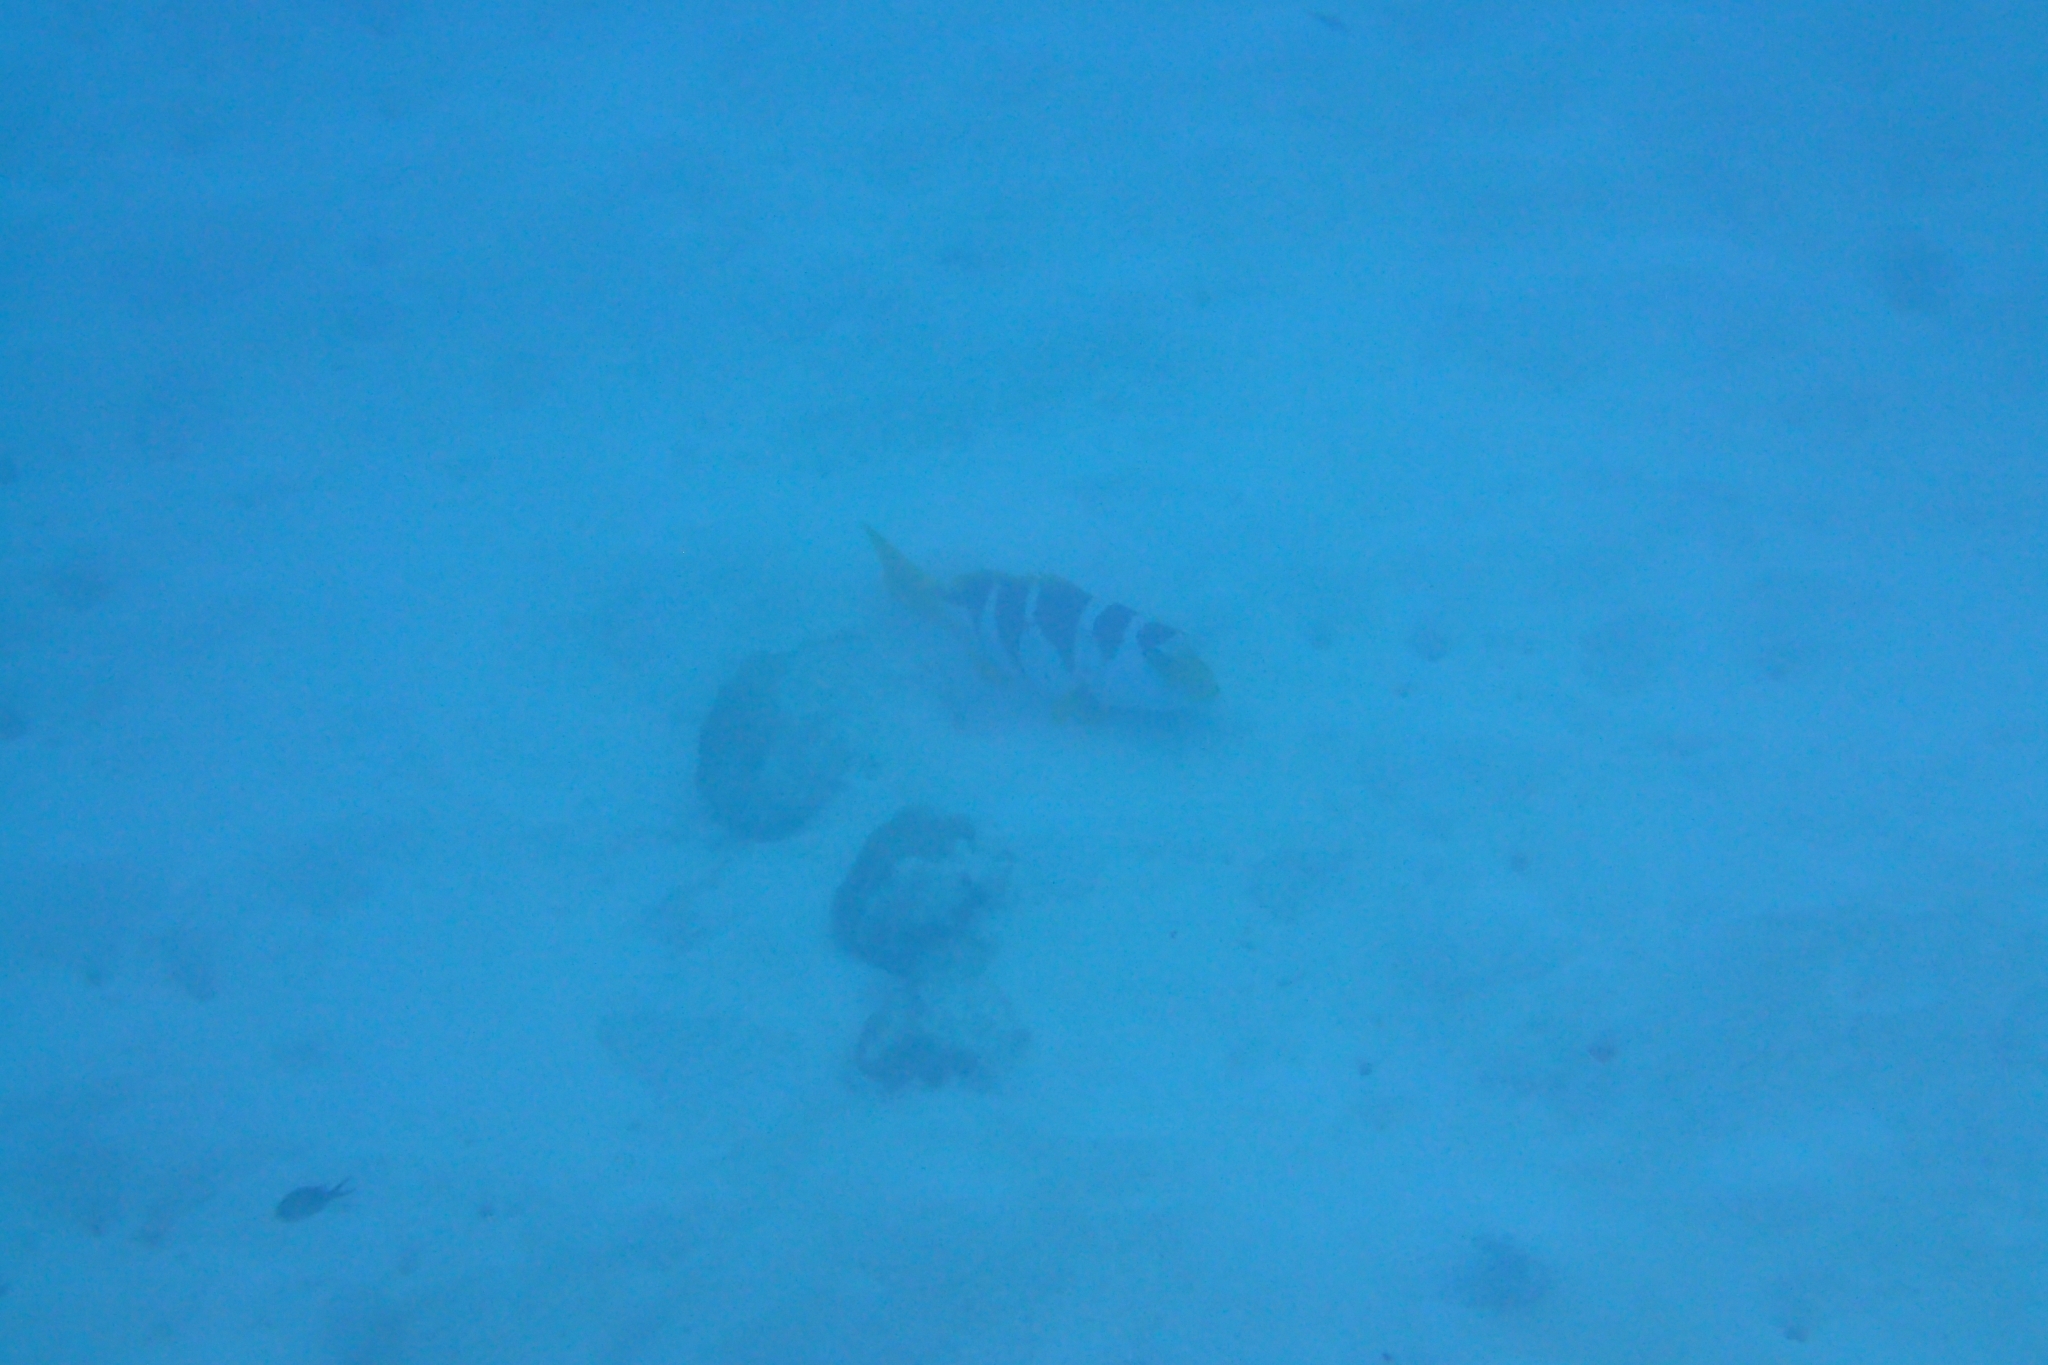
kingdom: Animalia
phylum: Chordata
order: Perciformes
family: Serranidae
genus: Plectropomus
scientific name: Plectropomus laevis
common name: Chinese footballer
